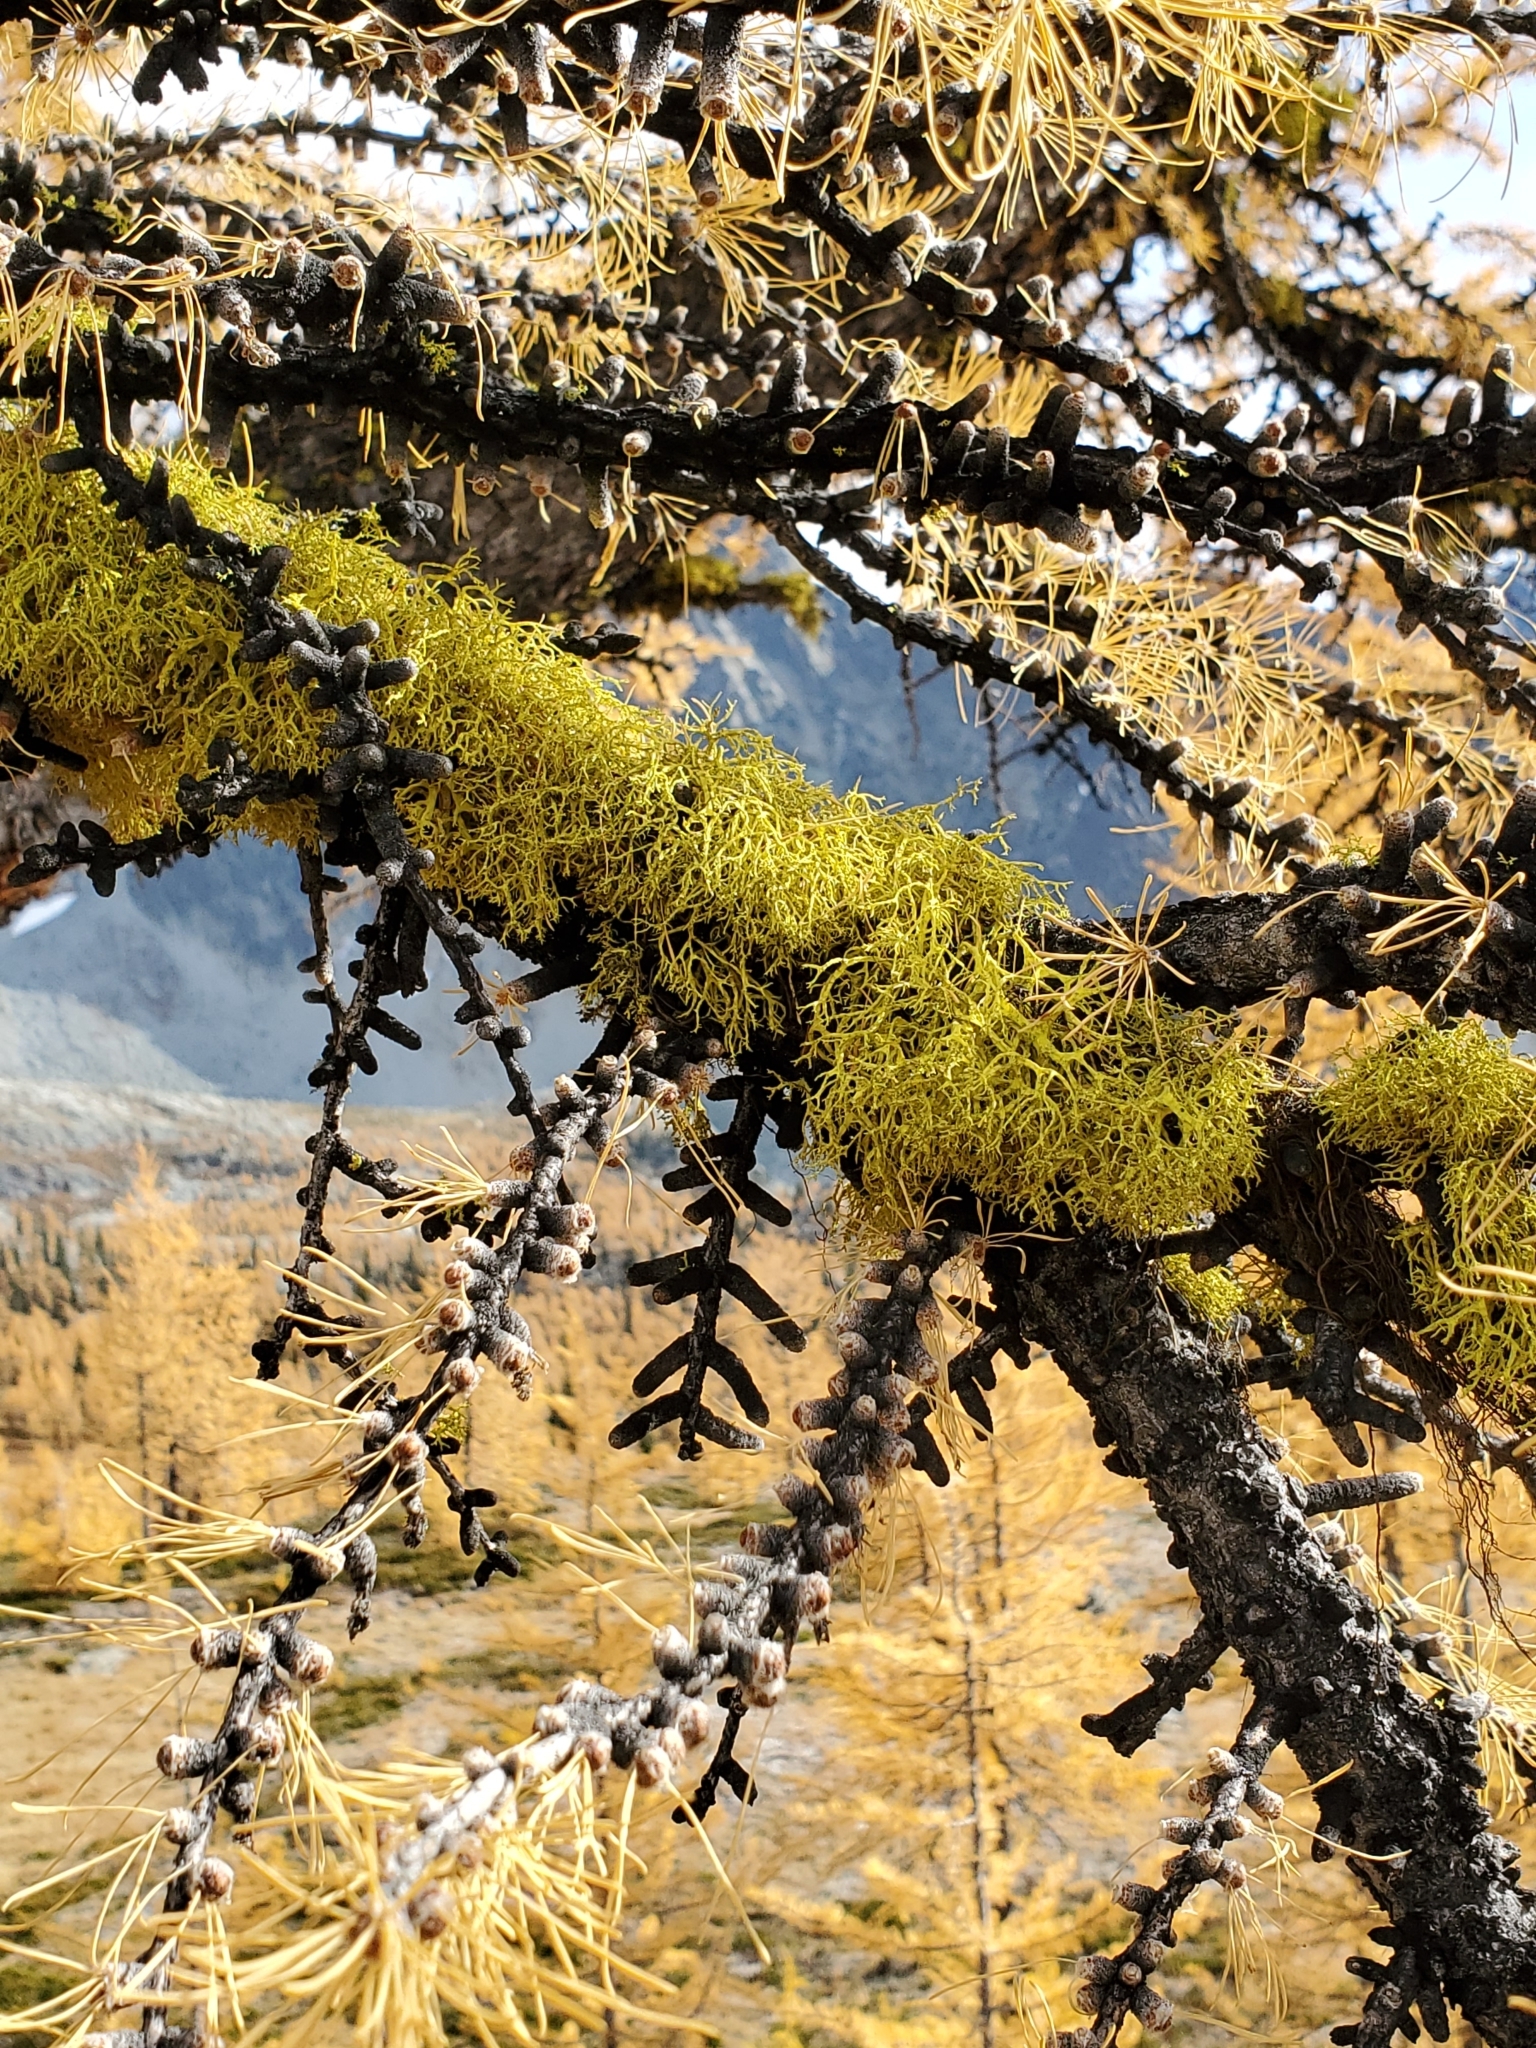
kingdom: Fungi
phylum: Ascomycota
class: Lecanoromycetes
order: Lecanorales
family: Parmeliaceae
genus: Letharia
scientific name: Letharia vulpina
